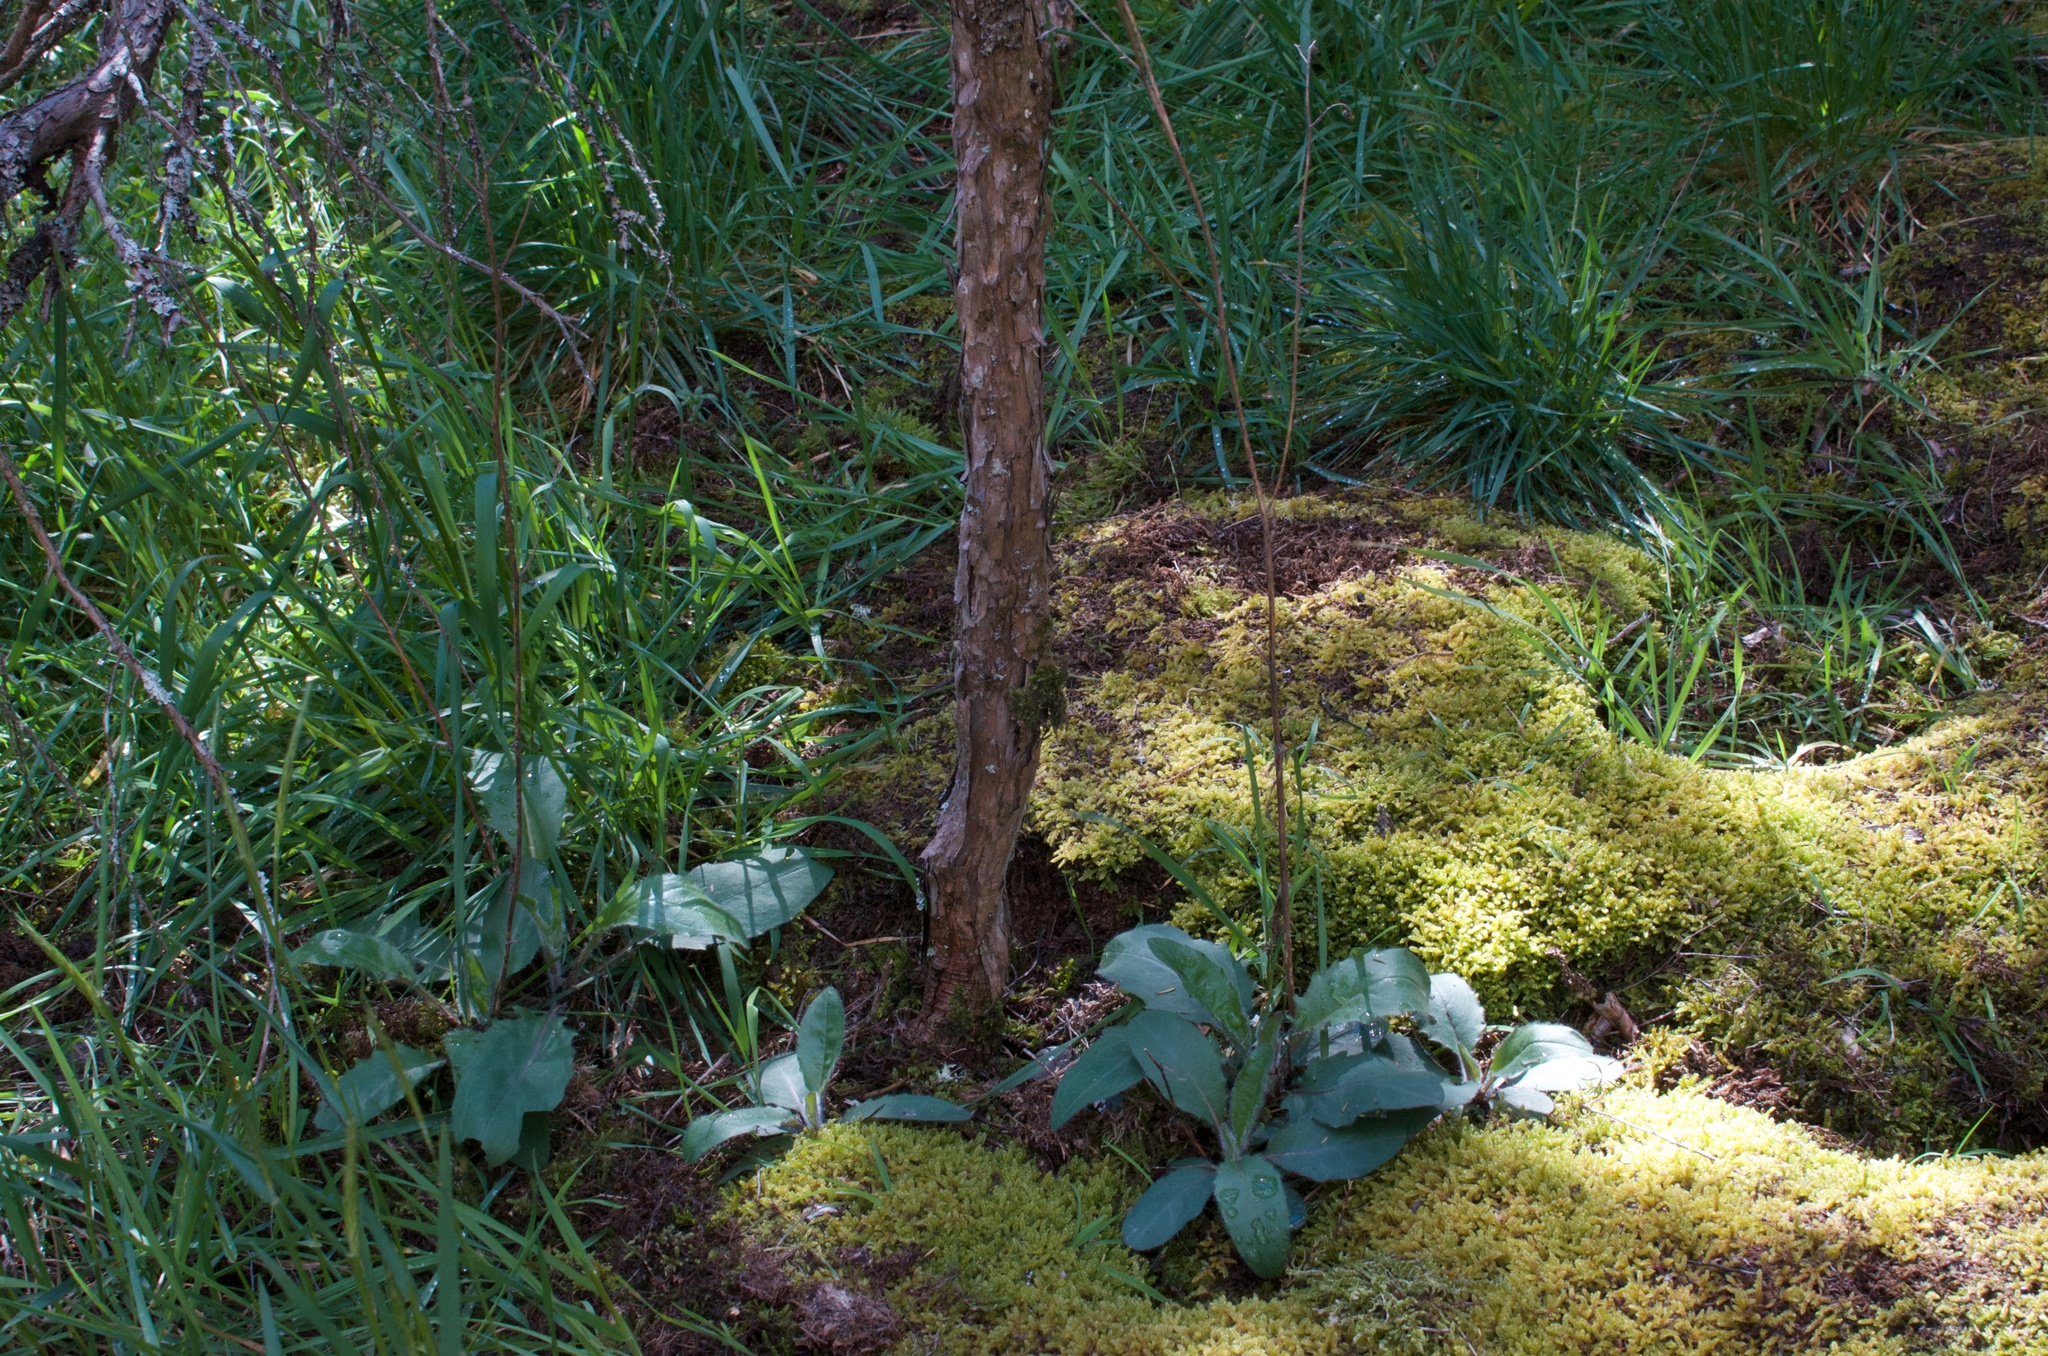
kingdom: Plantae
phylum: Tracheophyta
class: Magnoliopsida
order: Asterales
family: Asteraceae
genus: Hieracium
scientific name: Hieracium lepidulum
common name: Irregular-toothed hawkweed
